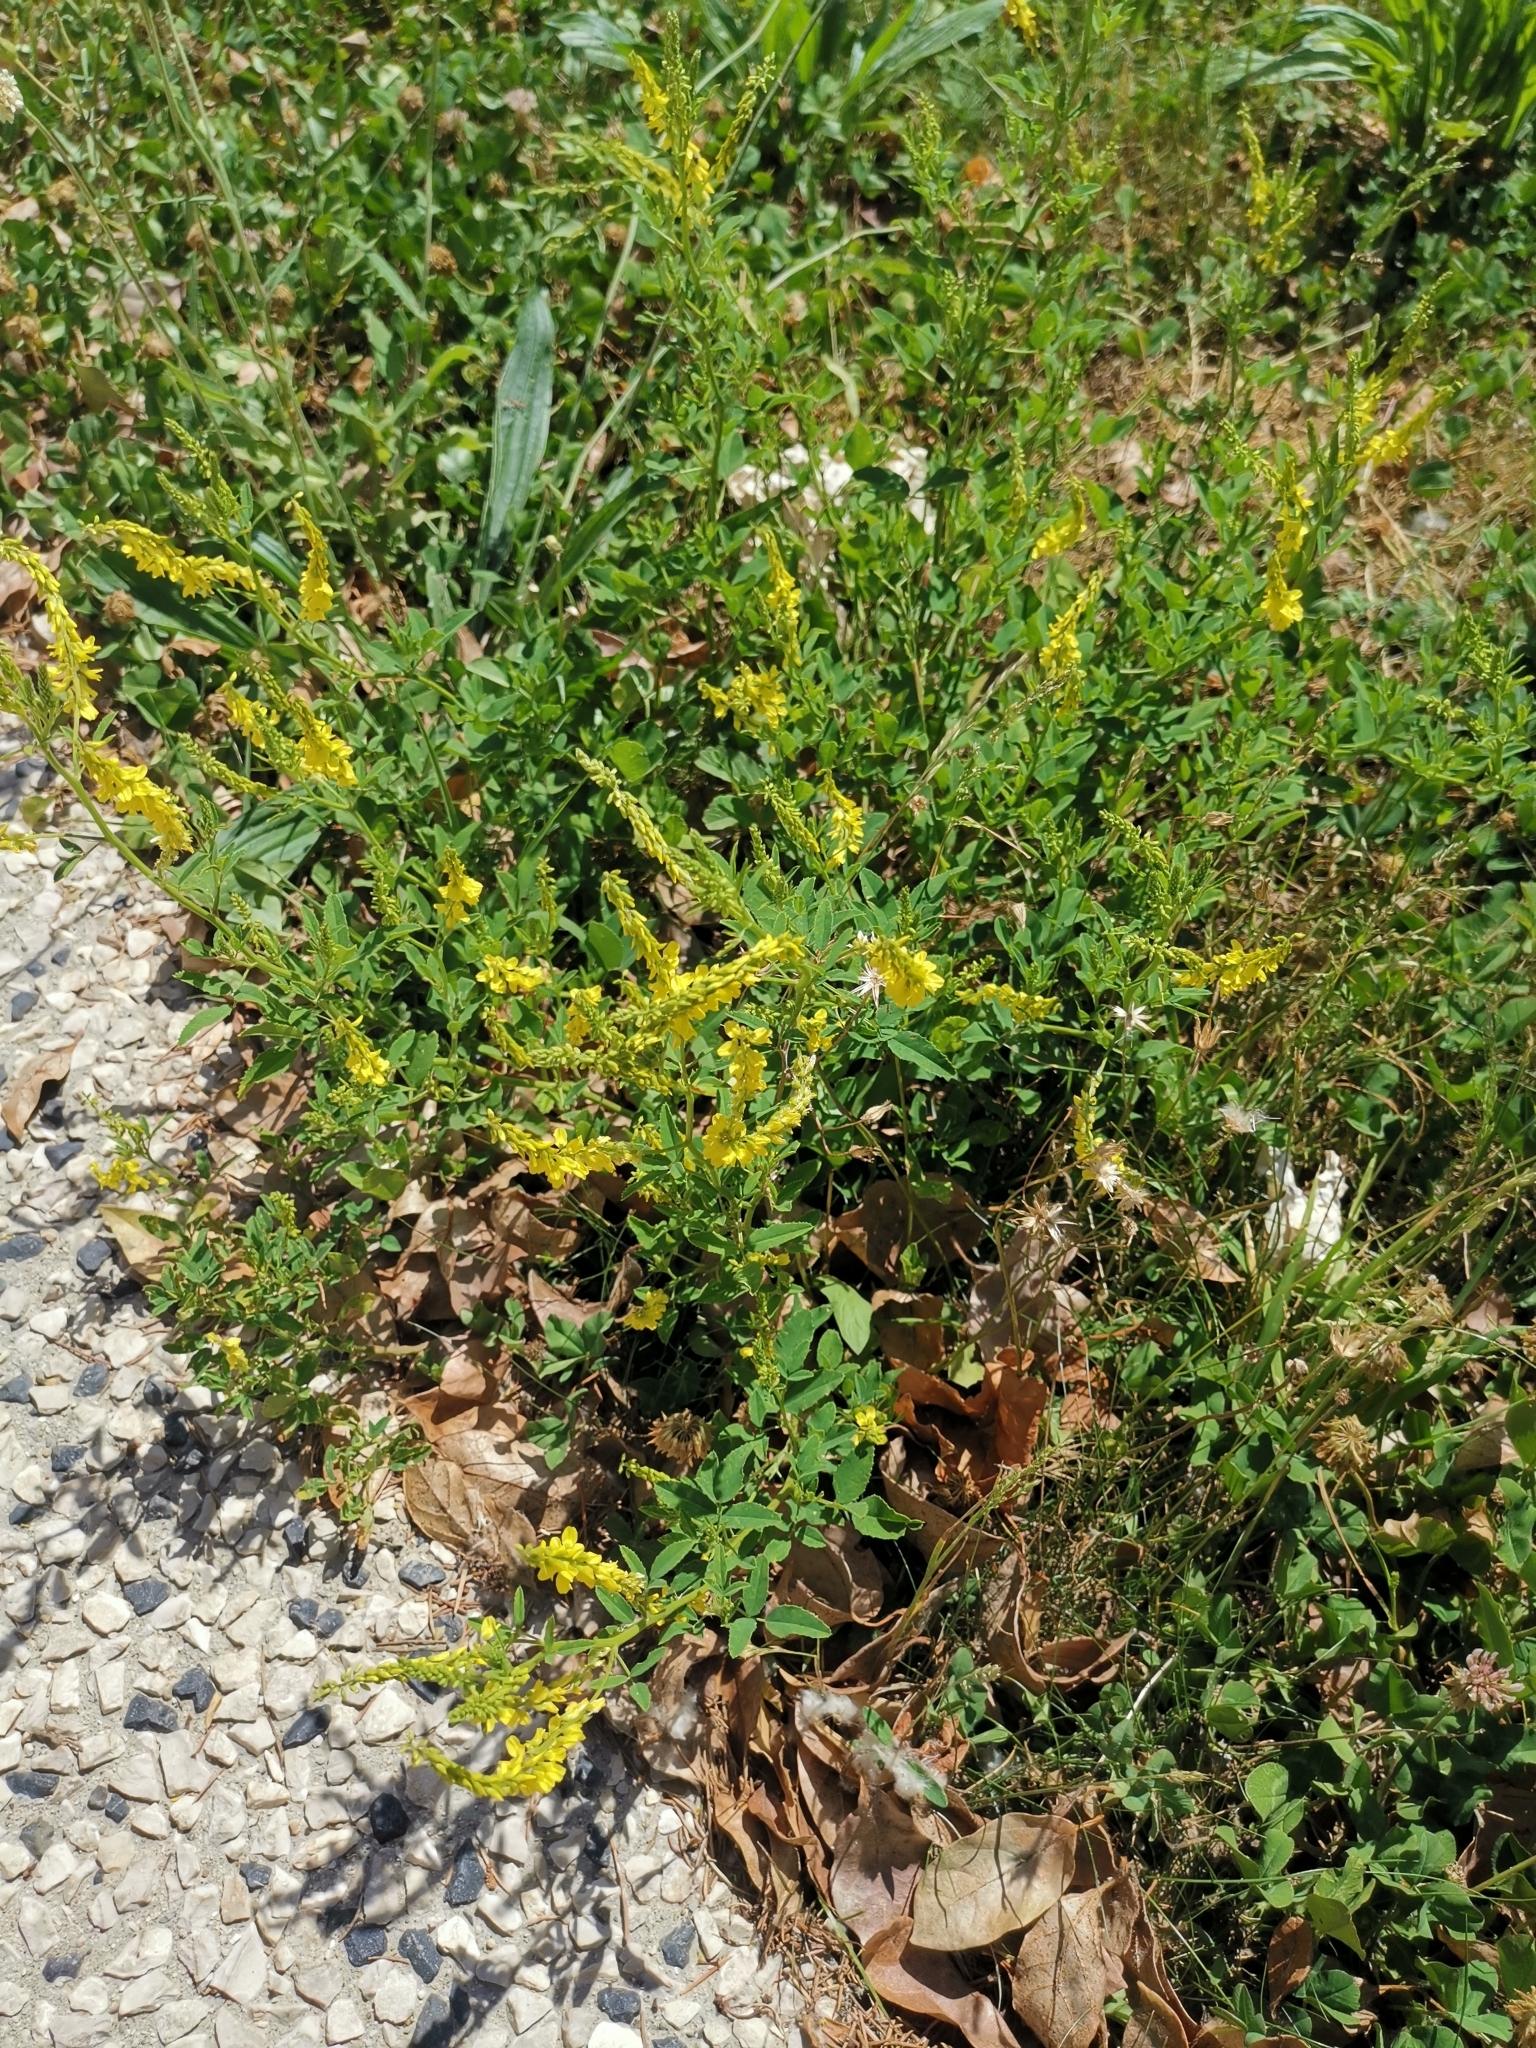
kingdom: Plantae
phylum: Tracheophyta
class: Magnoliopsida
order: Fabales
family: Fabaceae
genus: Melilotus
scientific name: Melilotus officinalis
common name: Sweetclover
